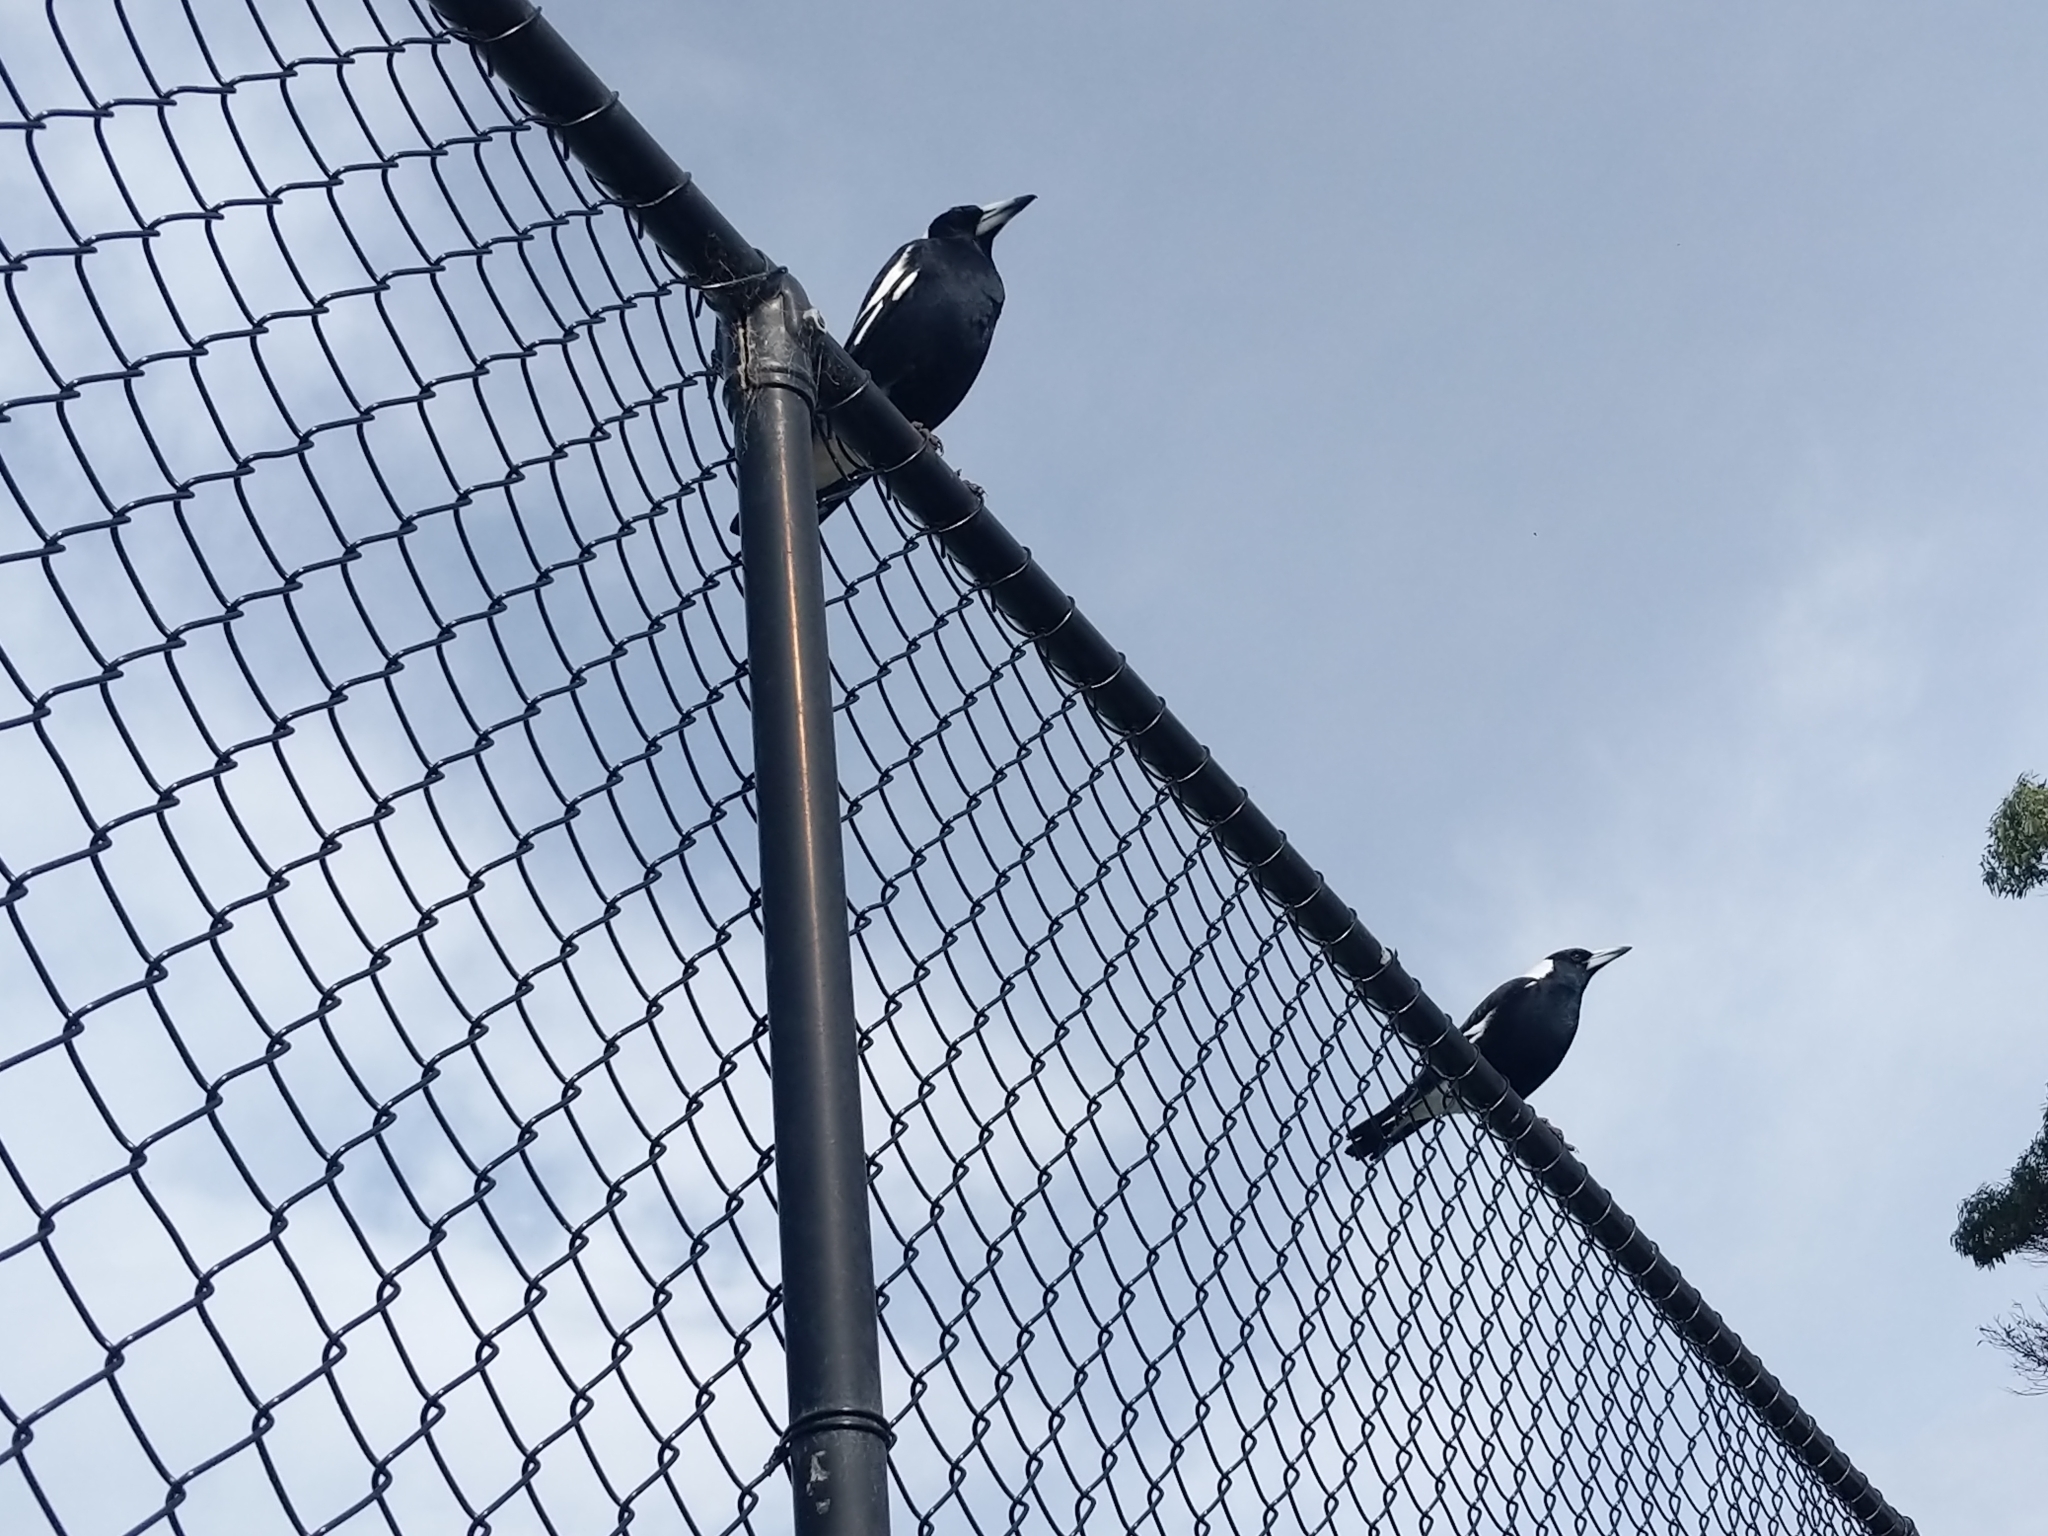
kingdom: Animalia
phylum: Chordata
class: Aves
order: Passeriformes
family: Cracticidae
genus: Gymnorhina
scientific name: Gymnorhina tibicen
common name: Australian magpie
